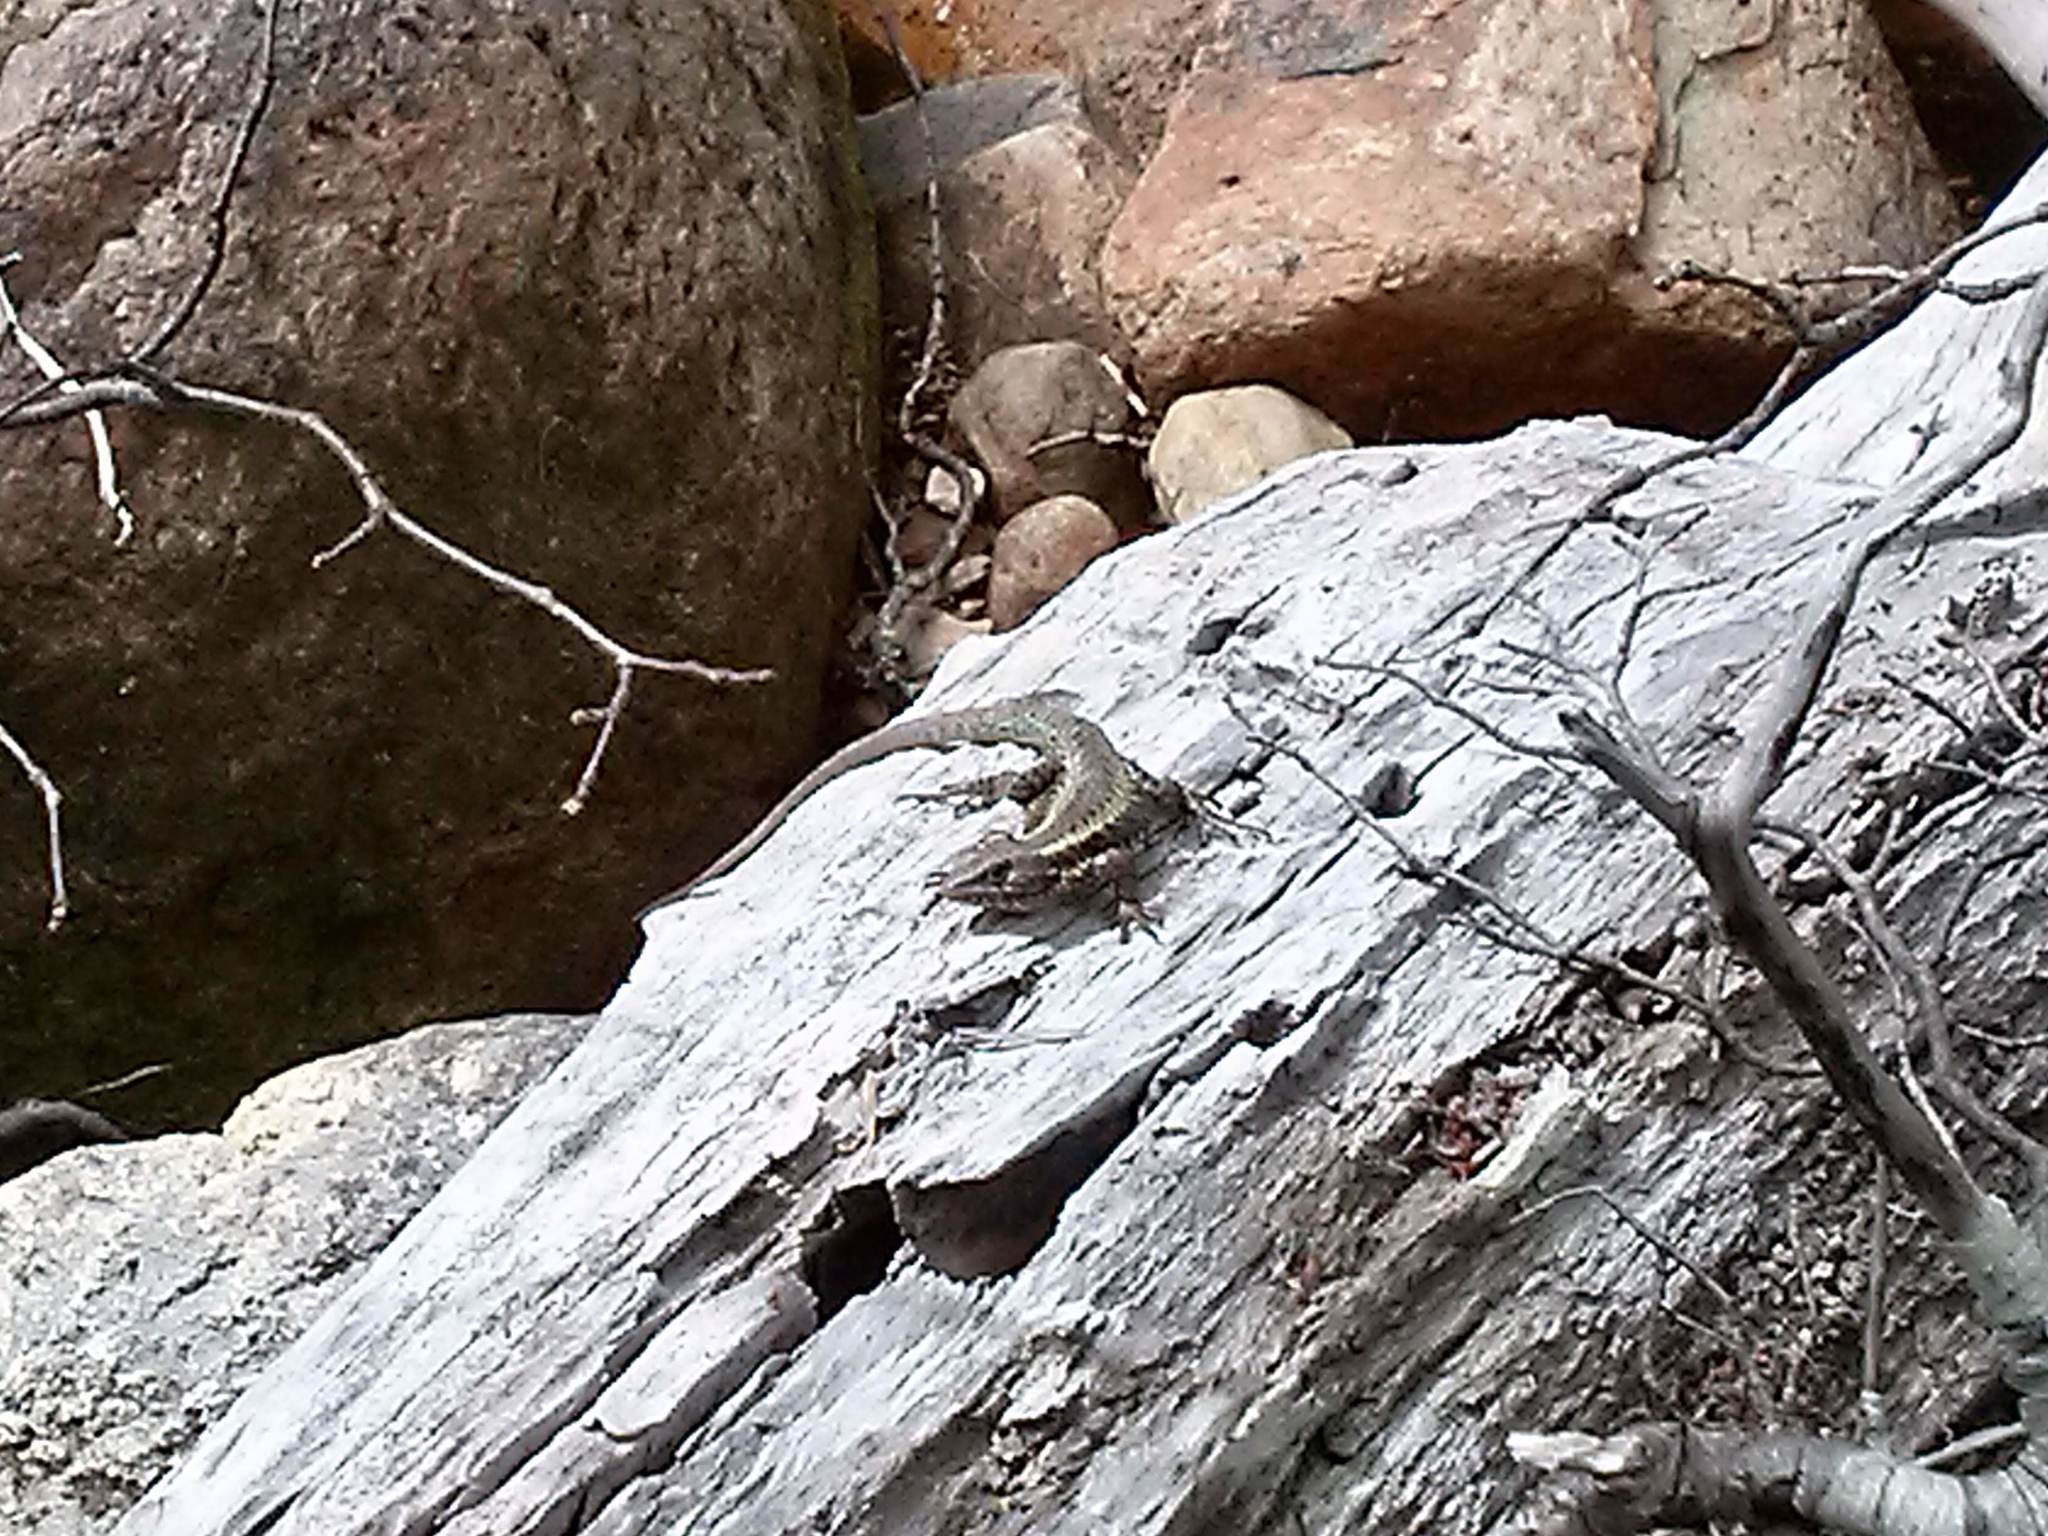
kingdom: Animalia
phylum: Chordata
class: Squamata
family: Liolaemidae
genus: Liolaemus
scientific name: Liolaemus pictus
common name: Painted tree iguana
